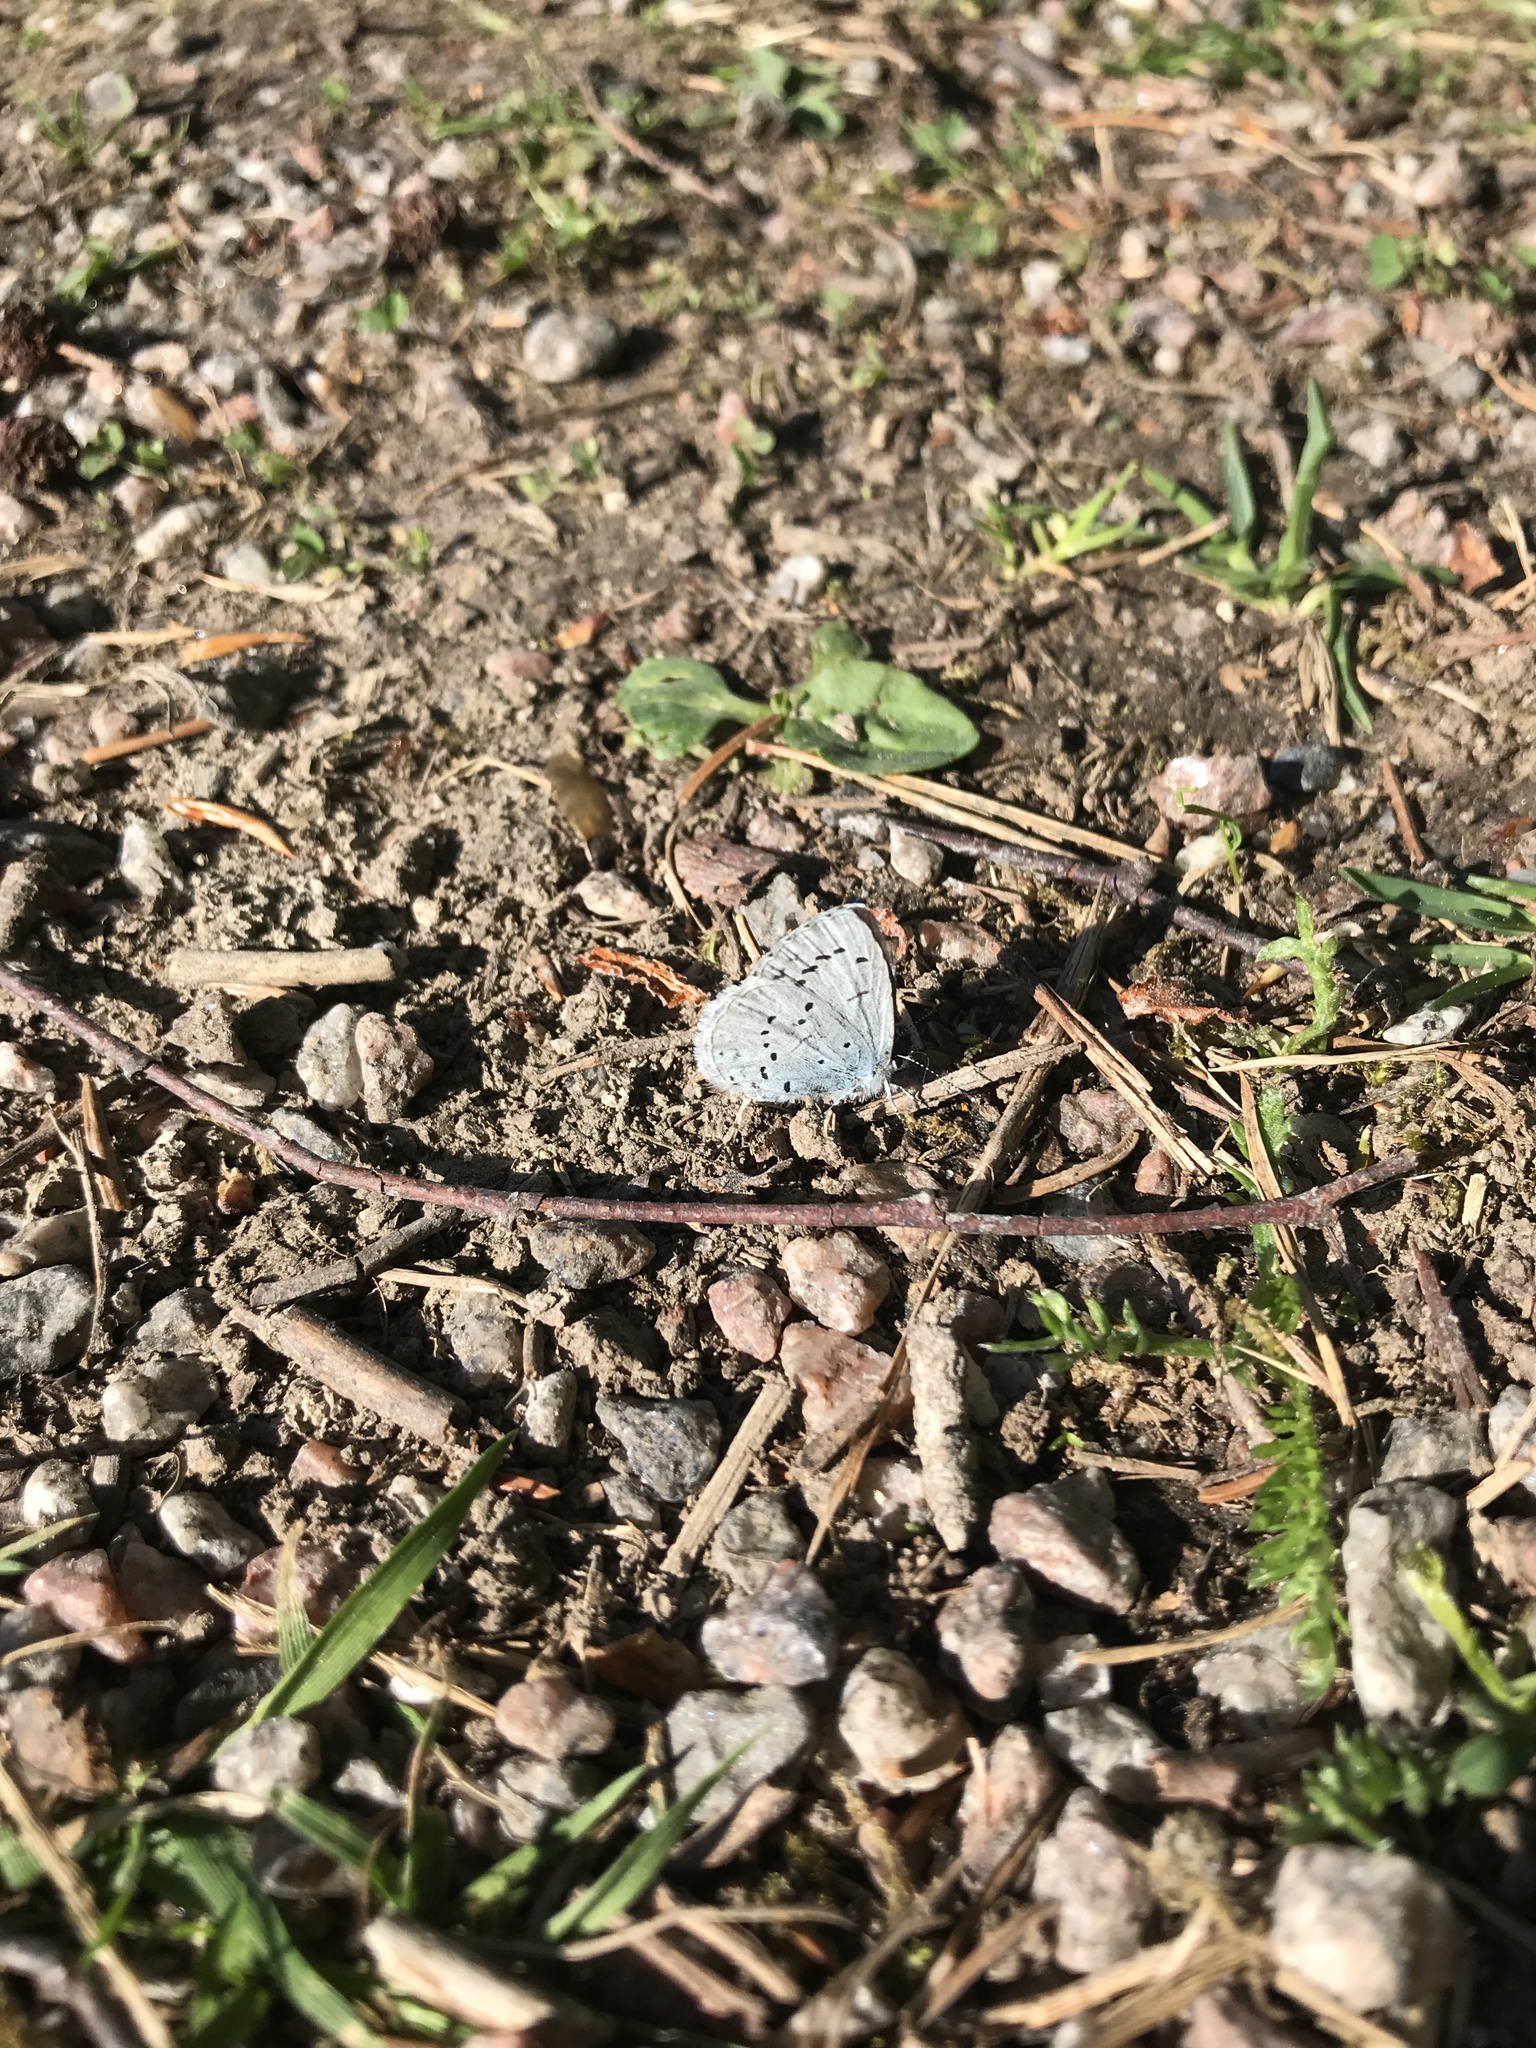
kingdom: Animalia
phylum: Arthropoda
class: Insecta
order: Lepidoptera
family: Lycaenidae
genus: Celastrina
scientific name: Celastrina argiolus
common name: Holly blue
